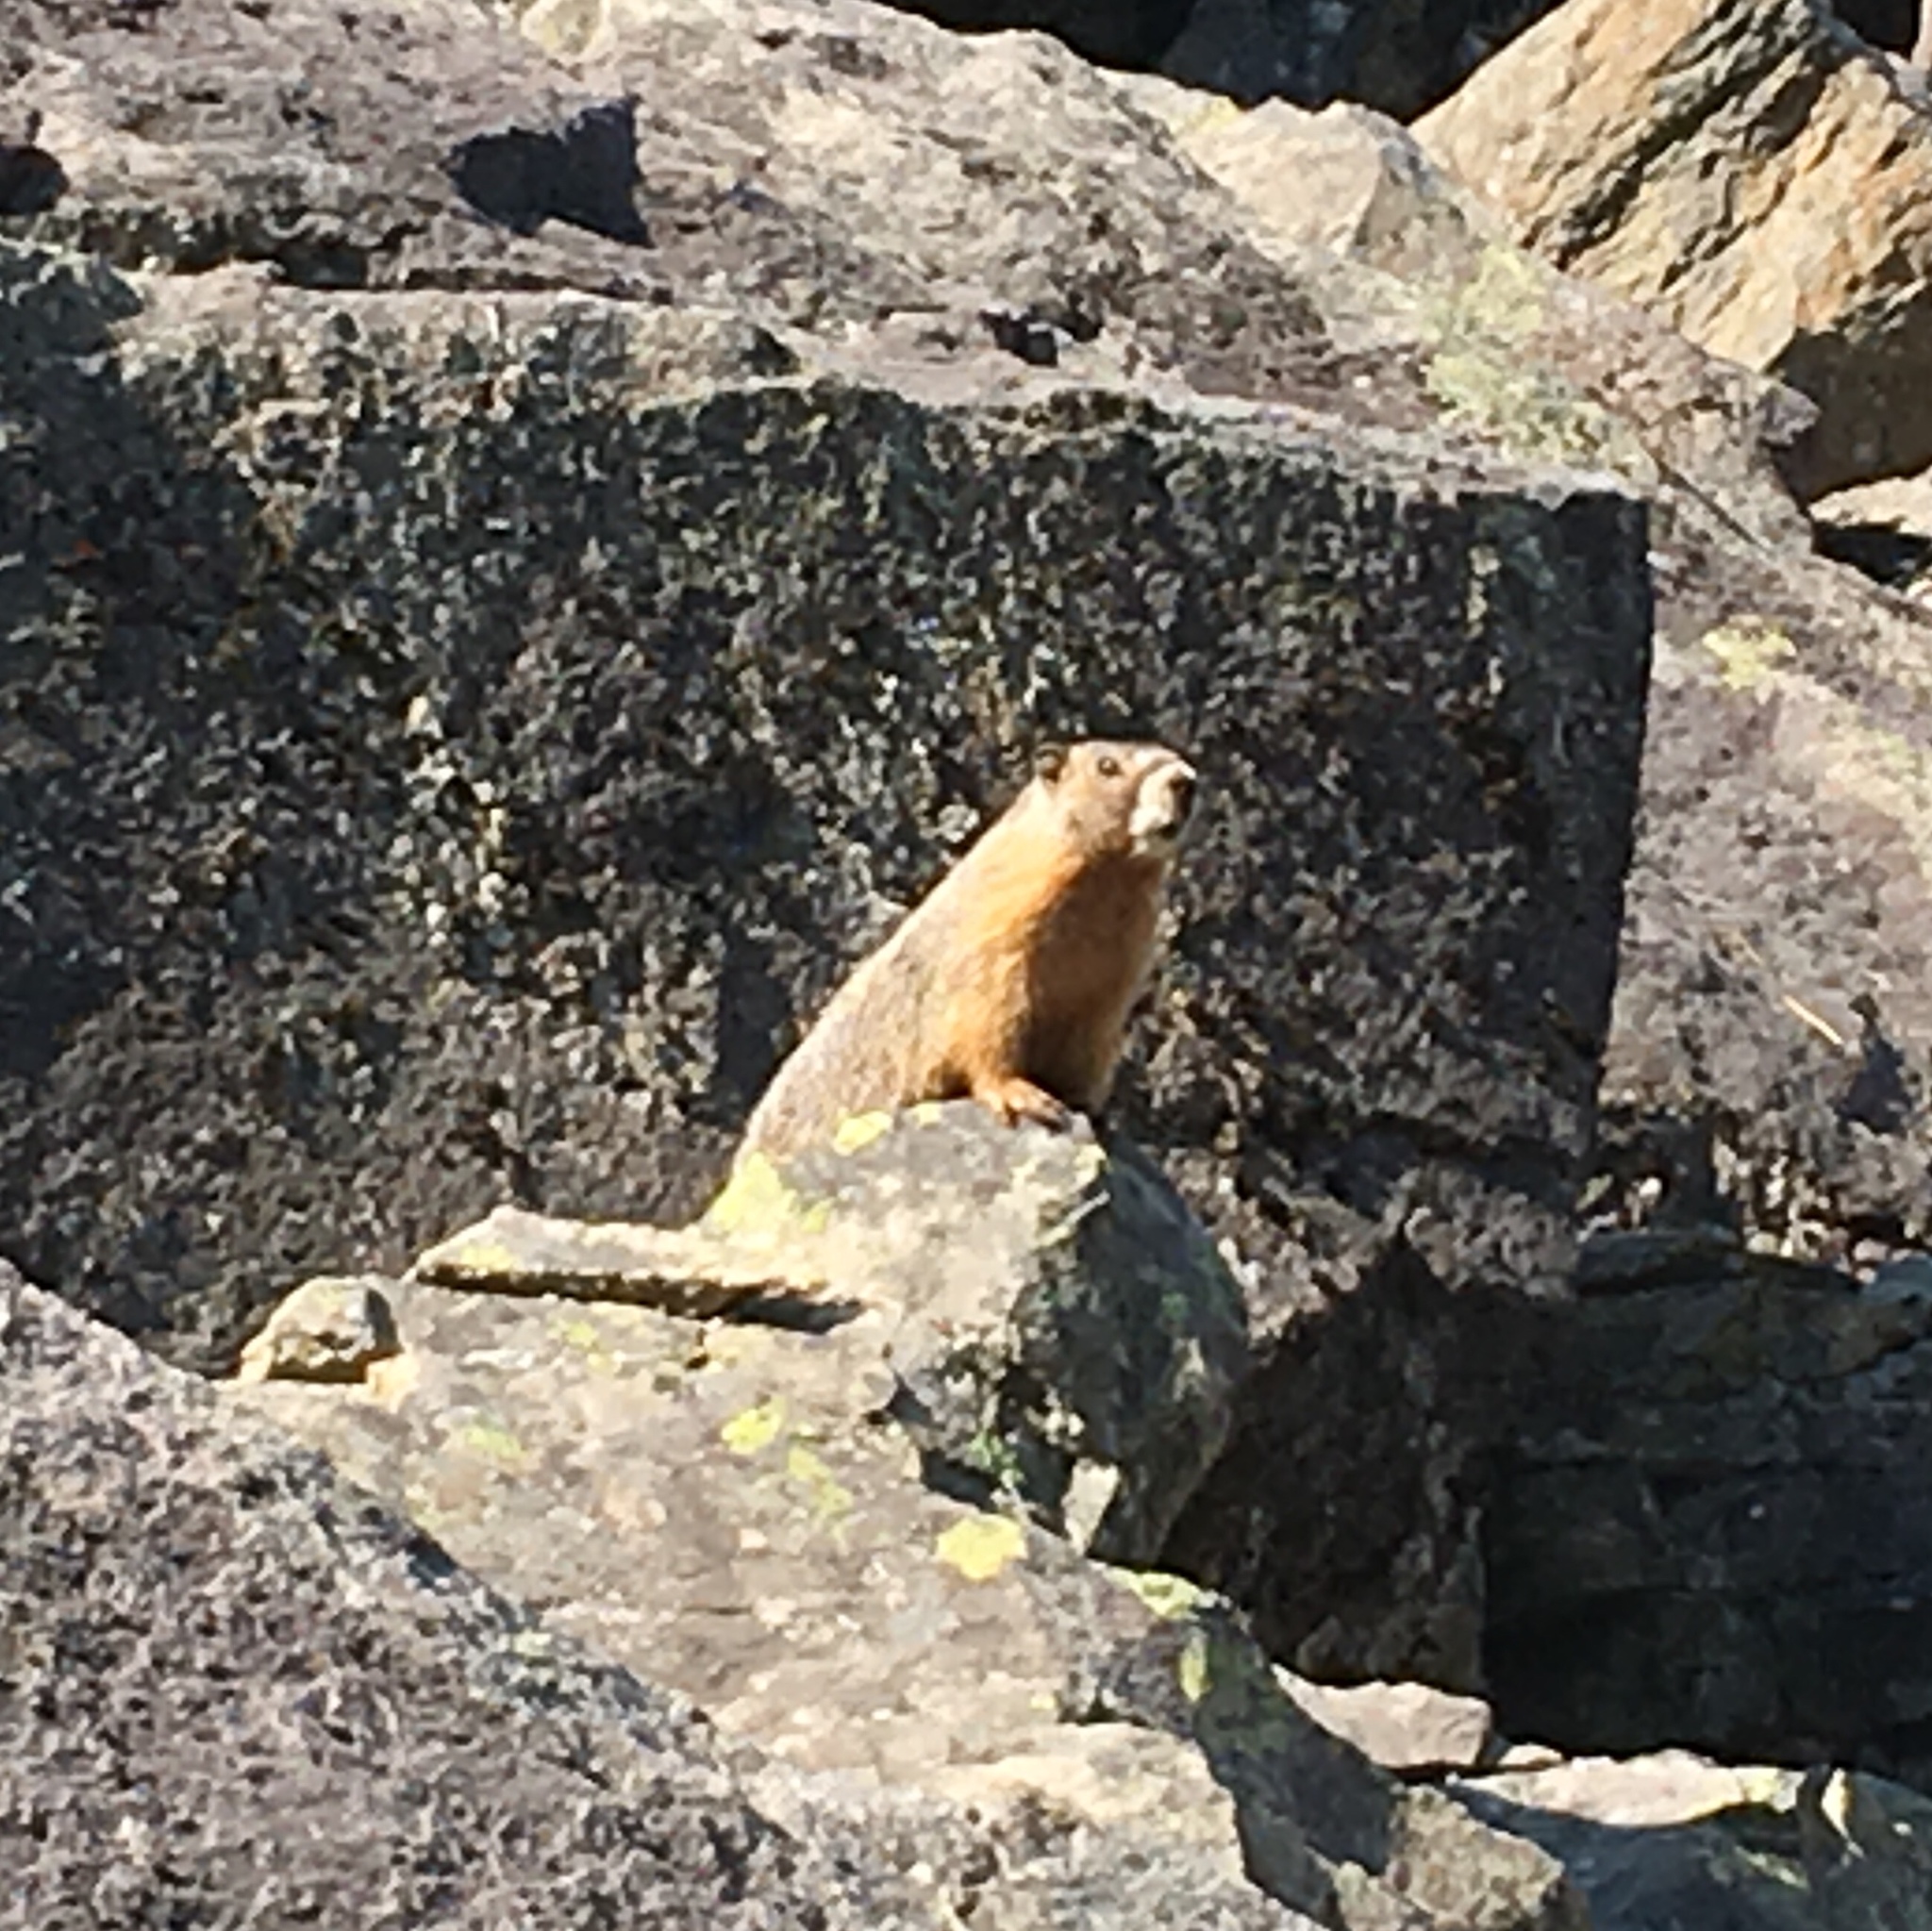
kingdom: Animalia
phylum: Chordata
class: Mammalia
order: Rodentia
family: Sciuridae
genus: Marmota
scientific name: Marmota flaviventris
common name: Yellow-bellied marmot
